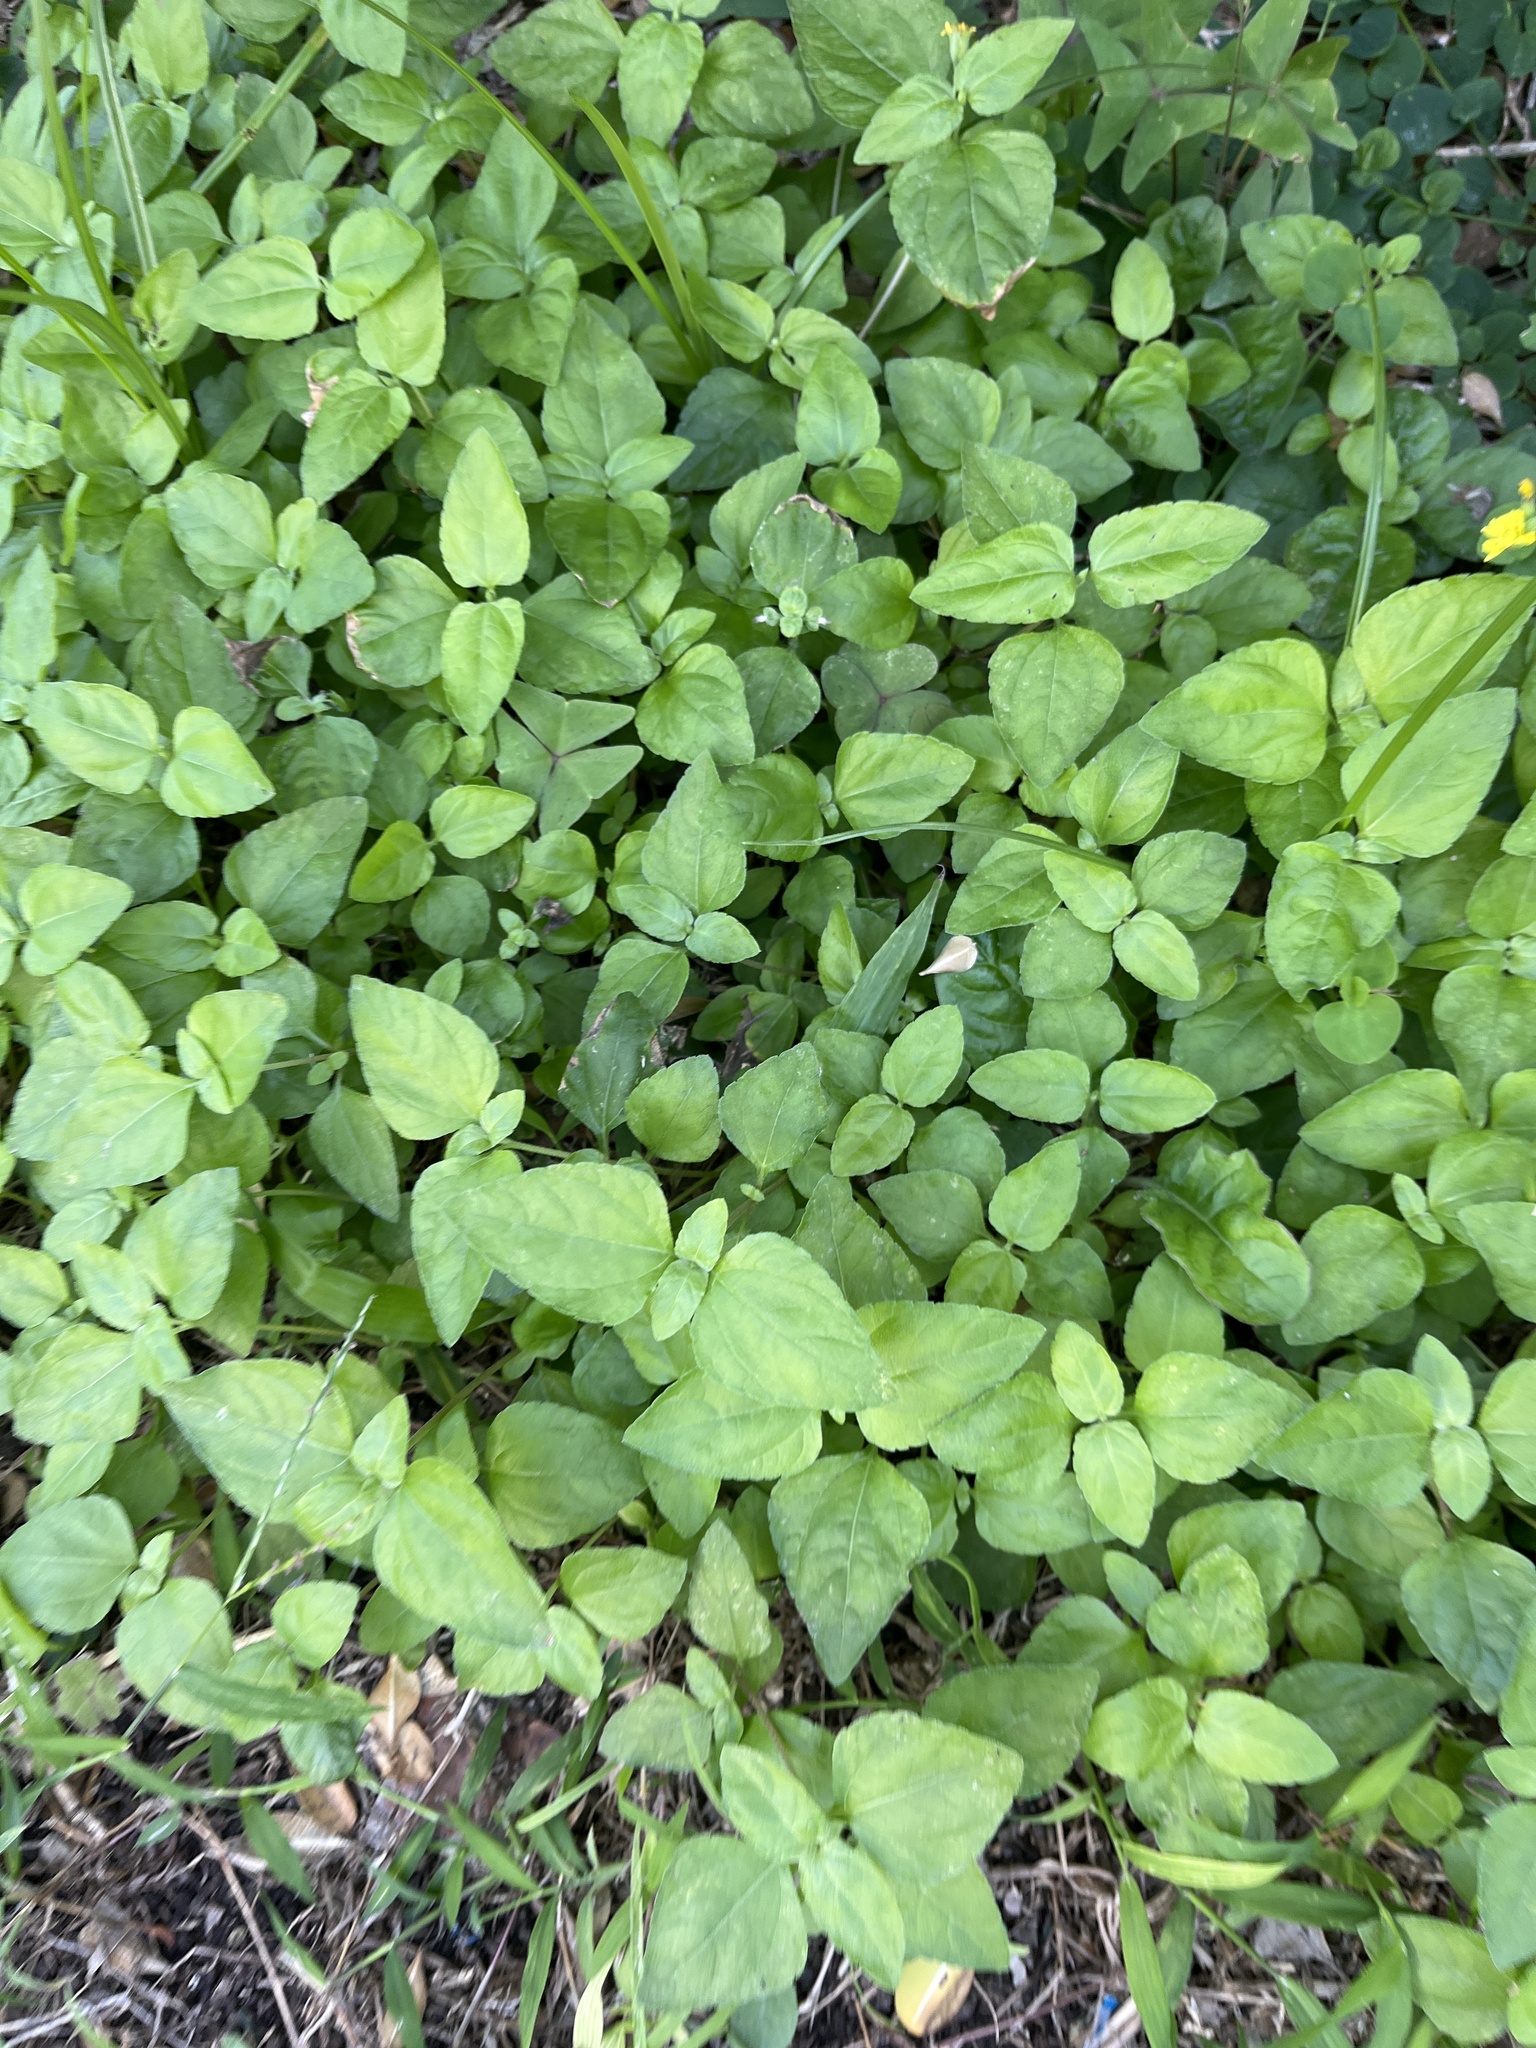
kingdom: Plantae
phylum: Tracheophyta
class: Magnoliopsida
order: Asterales
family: Asteraceae
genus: Calyptocarpus
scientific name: Calyptocarpus vialis
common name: Straggler daisy
